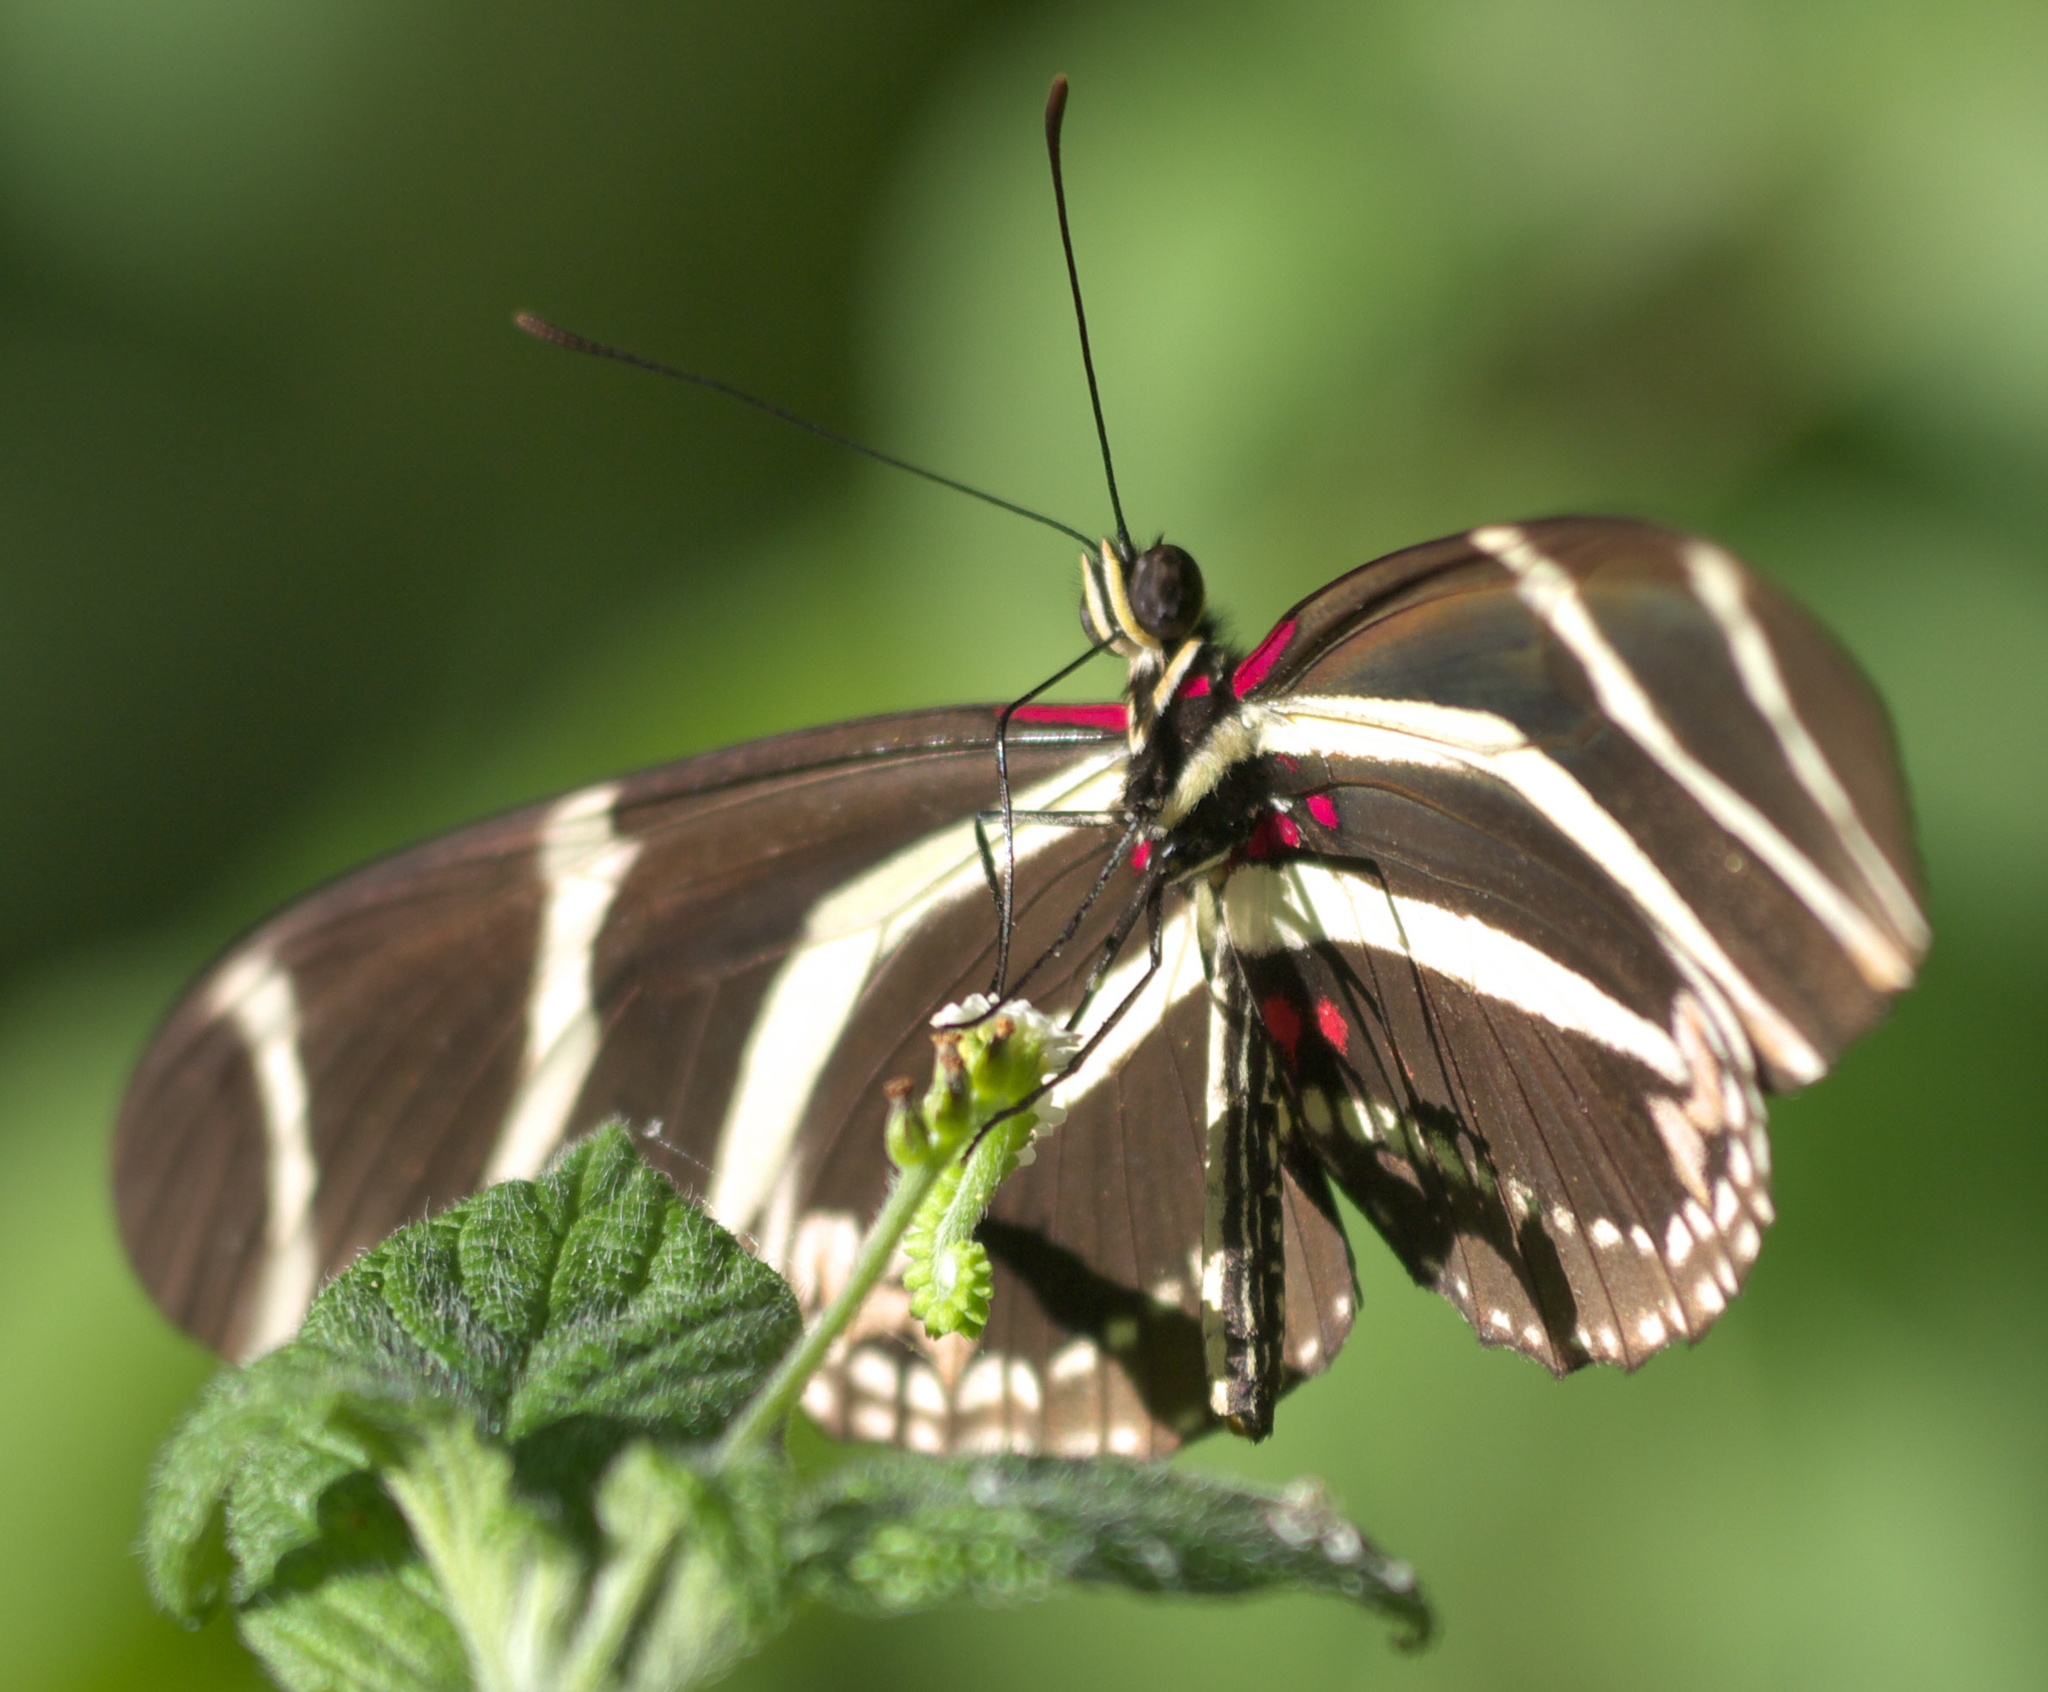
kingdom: Animalia
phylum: Arthropoda
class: Insecta
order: Lepidoptera
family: Nymphalidae
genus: Heliconius
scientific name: Heliconius charithonia
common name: Zebra long wing
